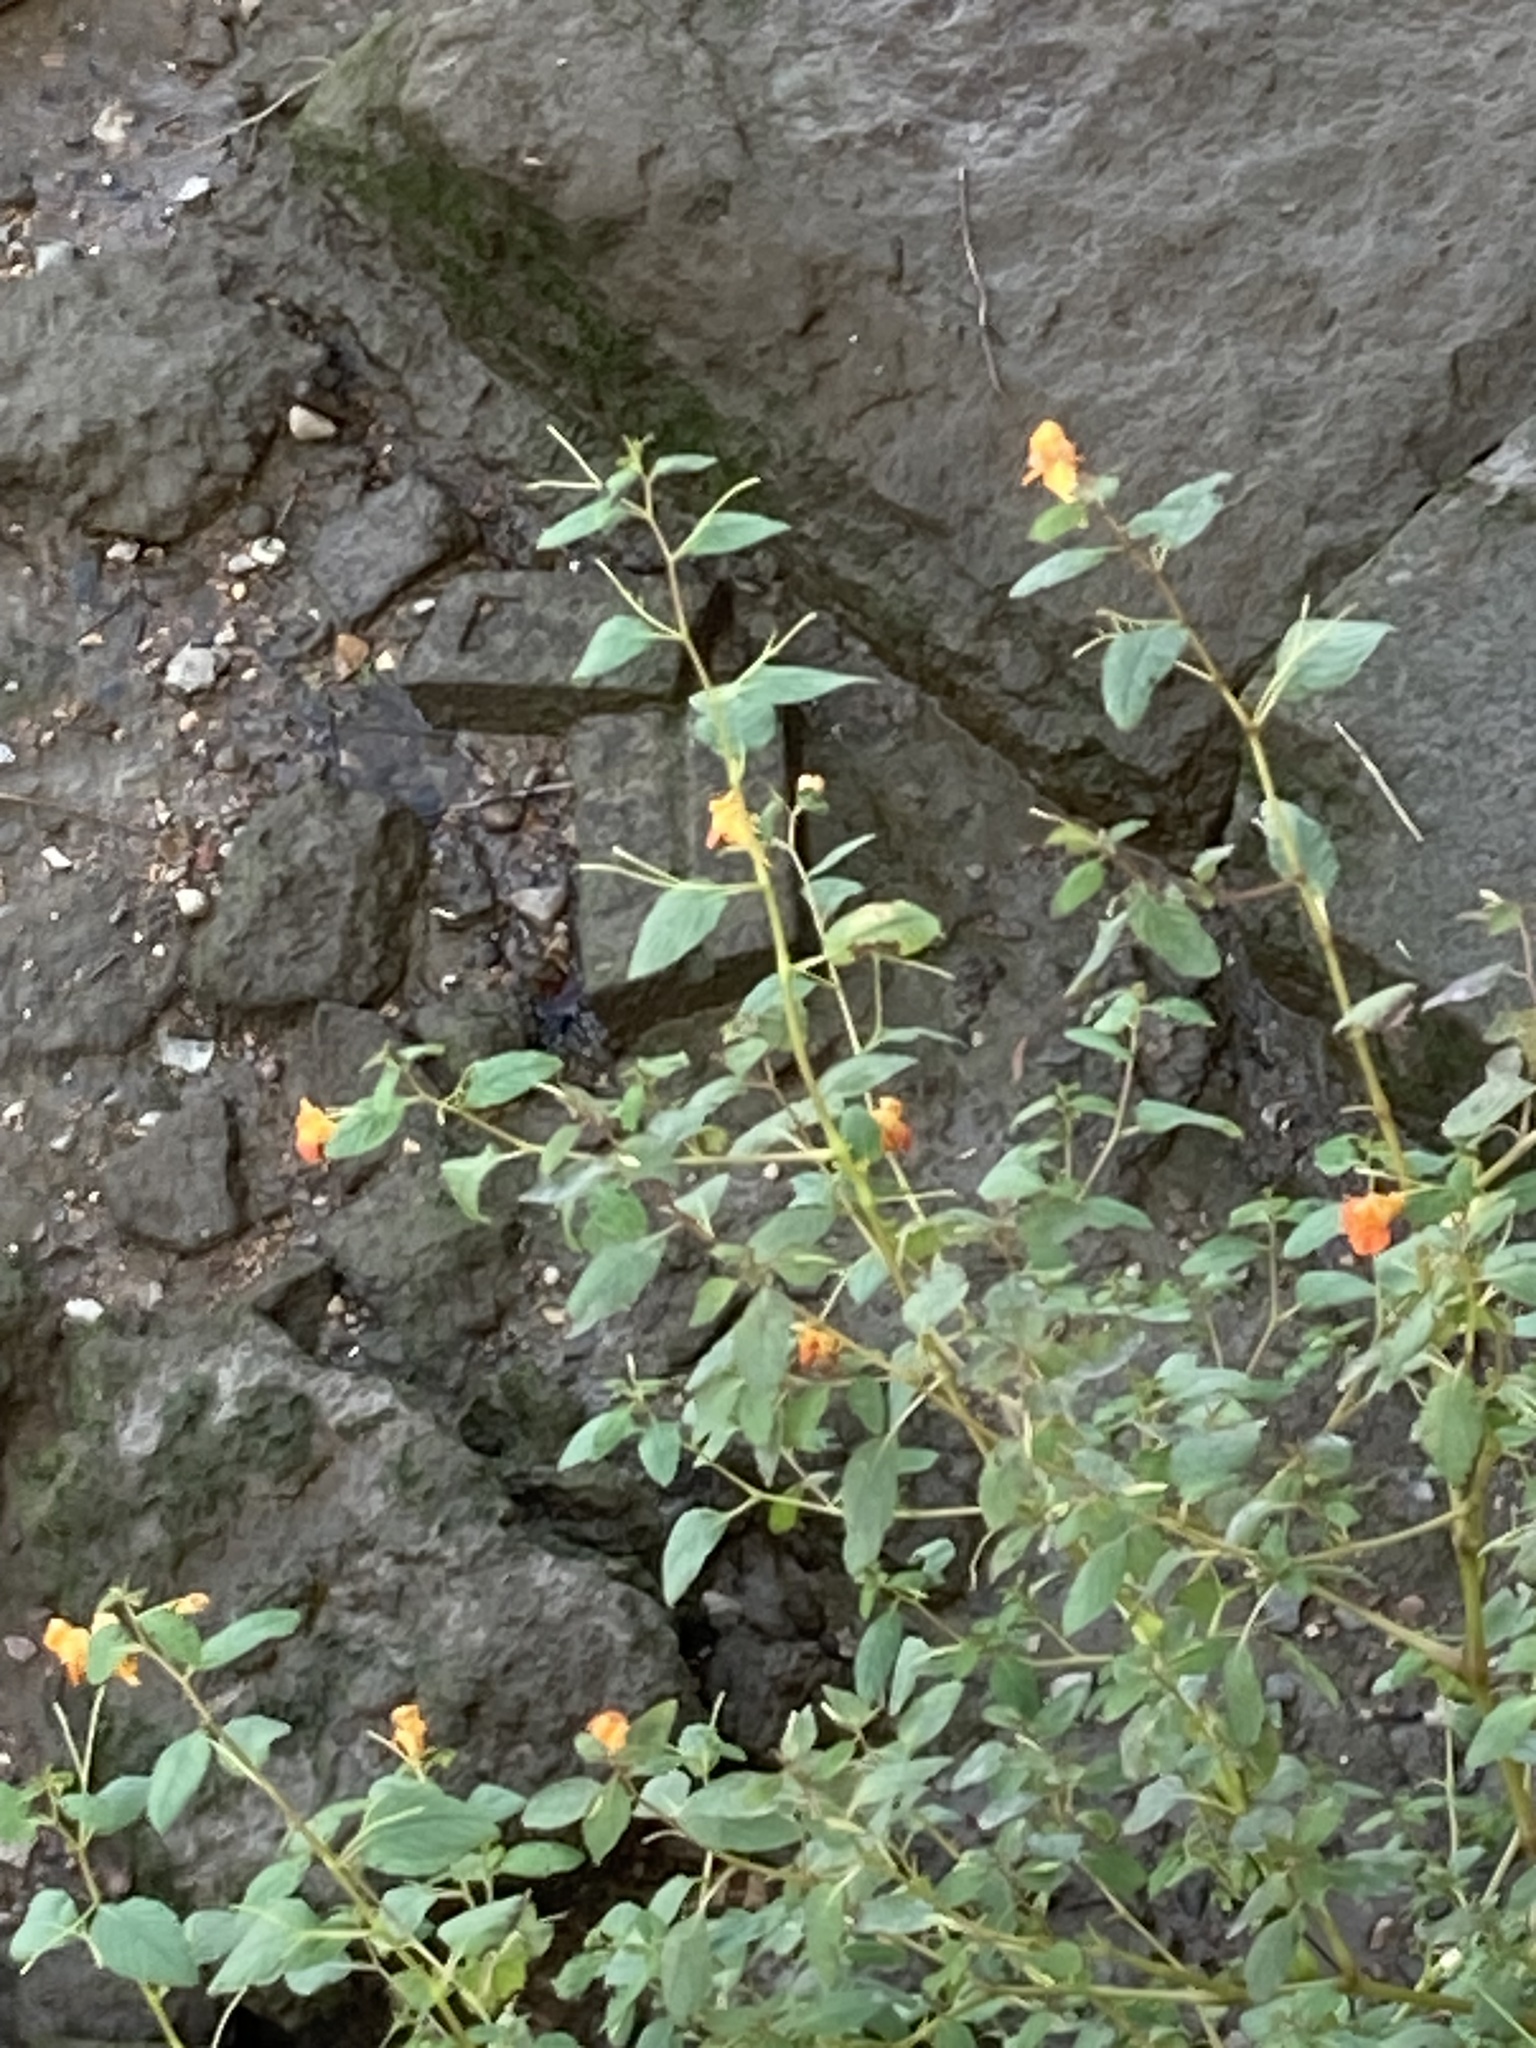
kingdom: Plantae
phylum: Tracheophyta
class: Magnoliopsida
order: Ericales
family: Balsaminaceae
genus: Impatiens
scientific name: Impatiens capensis
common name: Orange balsam
